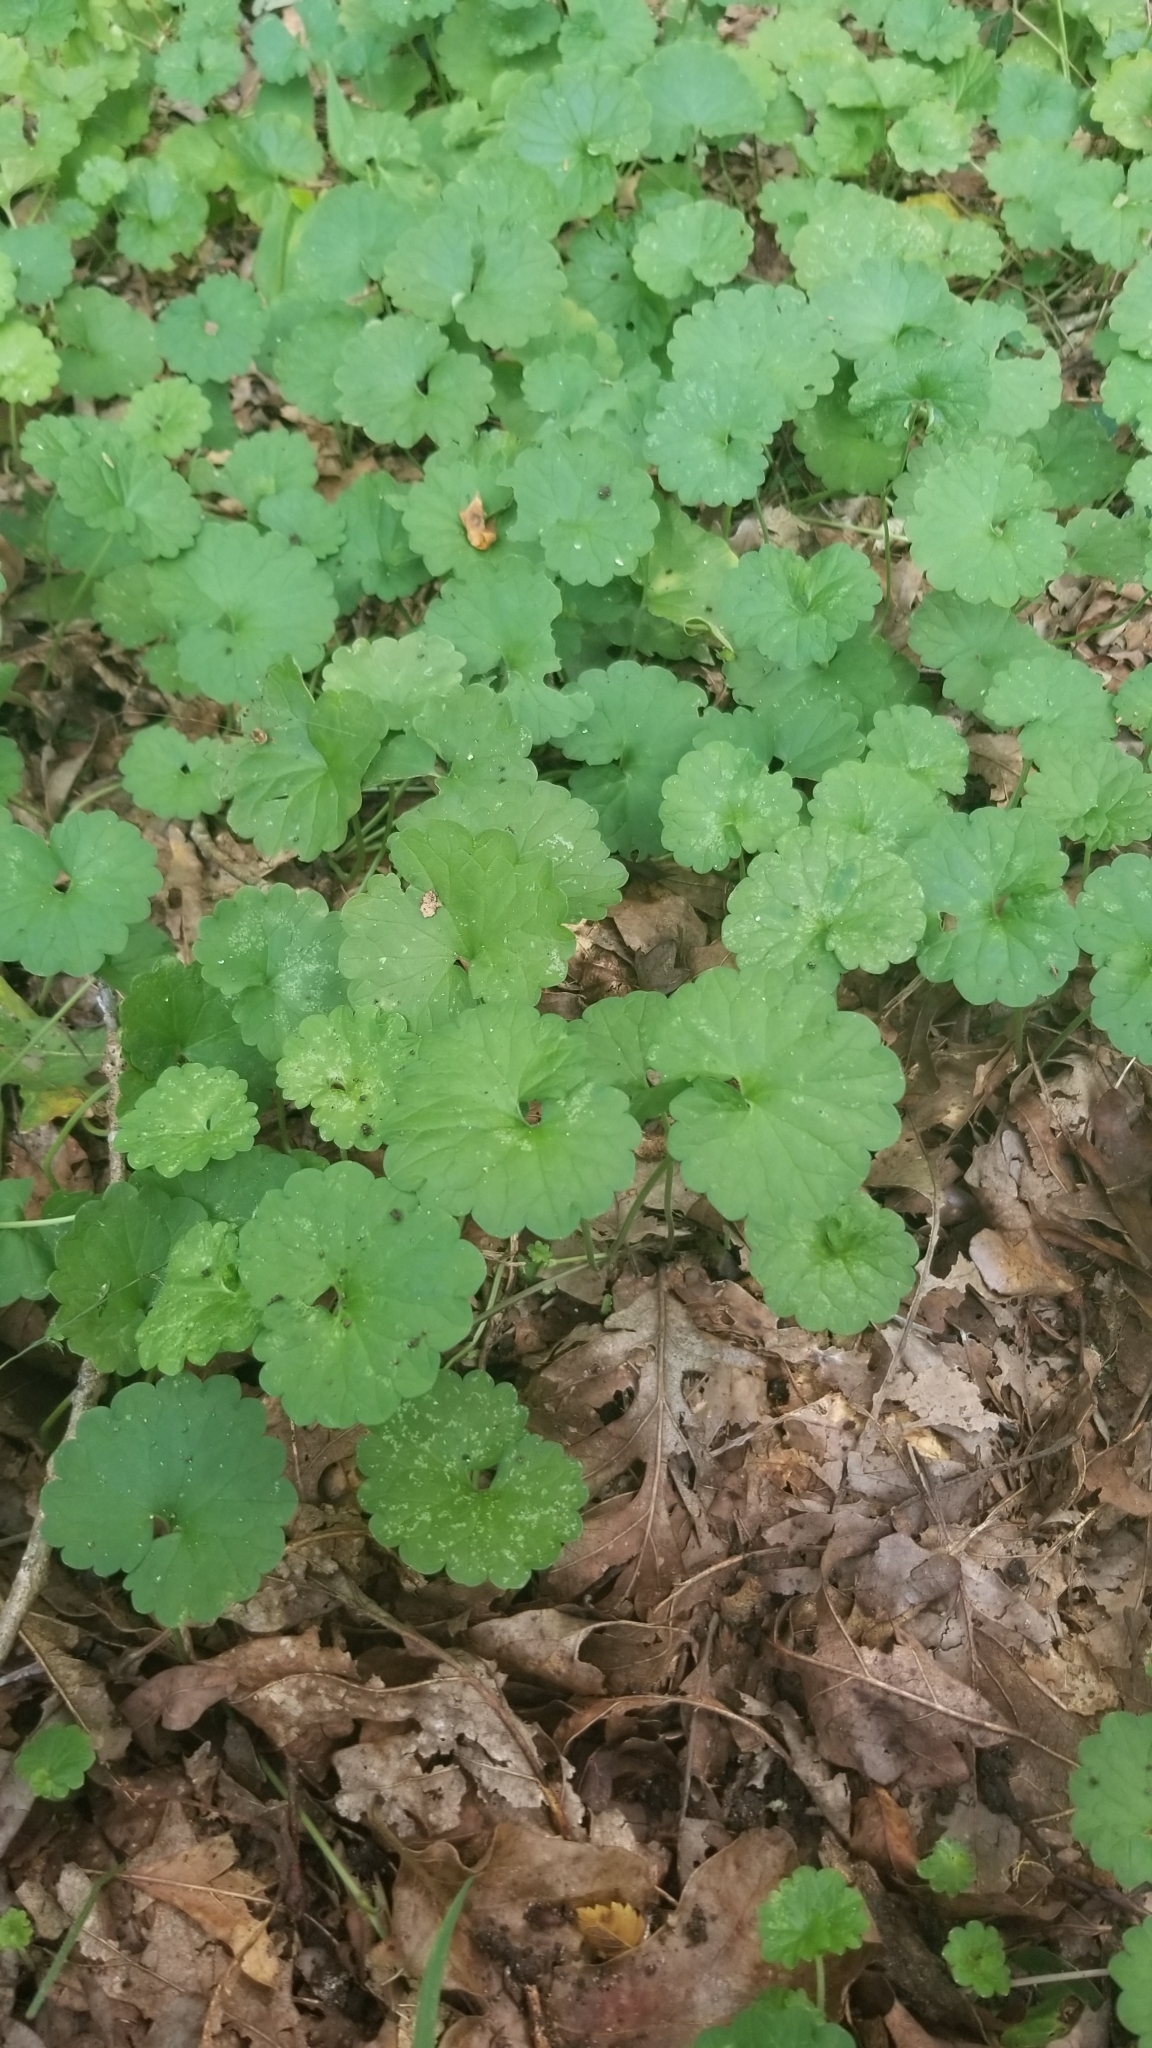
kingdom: Plantae
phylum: Tracheophyta
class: Magnoliopsida
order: Lamiales
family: Lamiaceae
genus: Glechoma
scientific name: Glechoma hederacea
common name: Ground ivy
